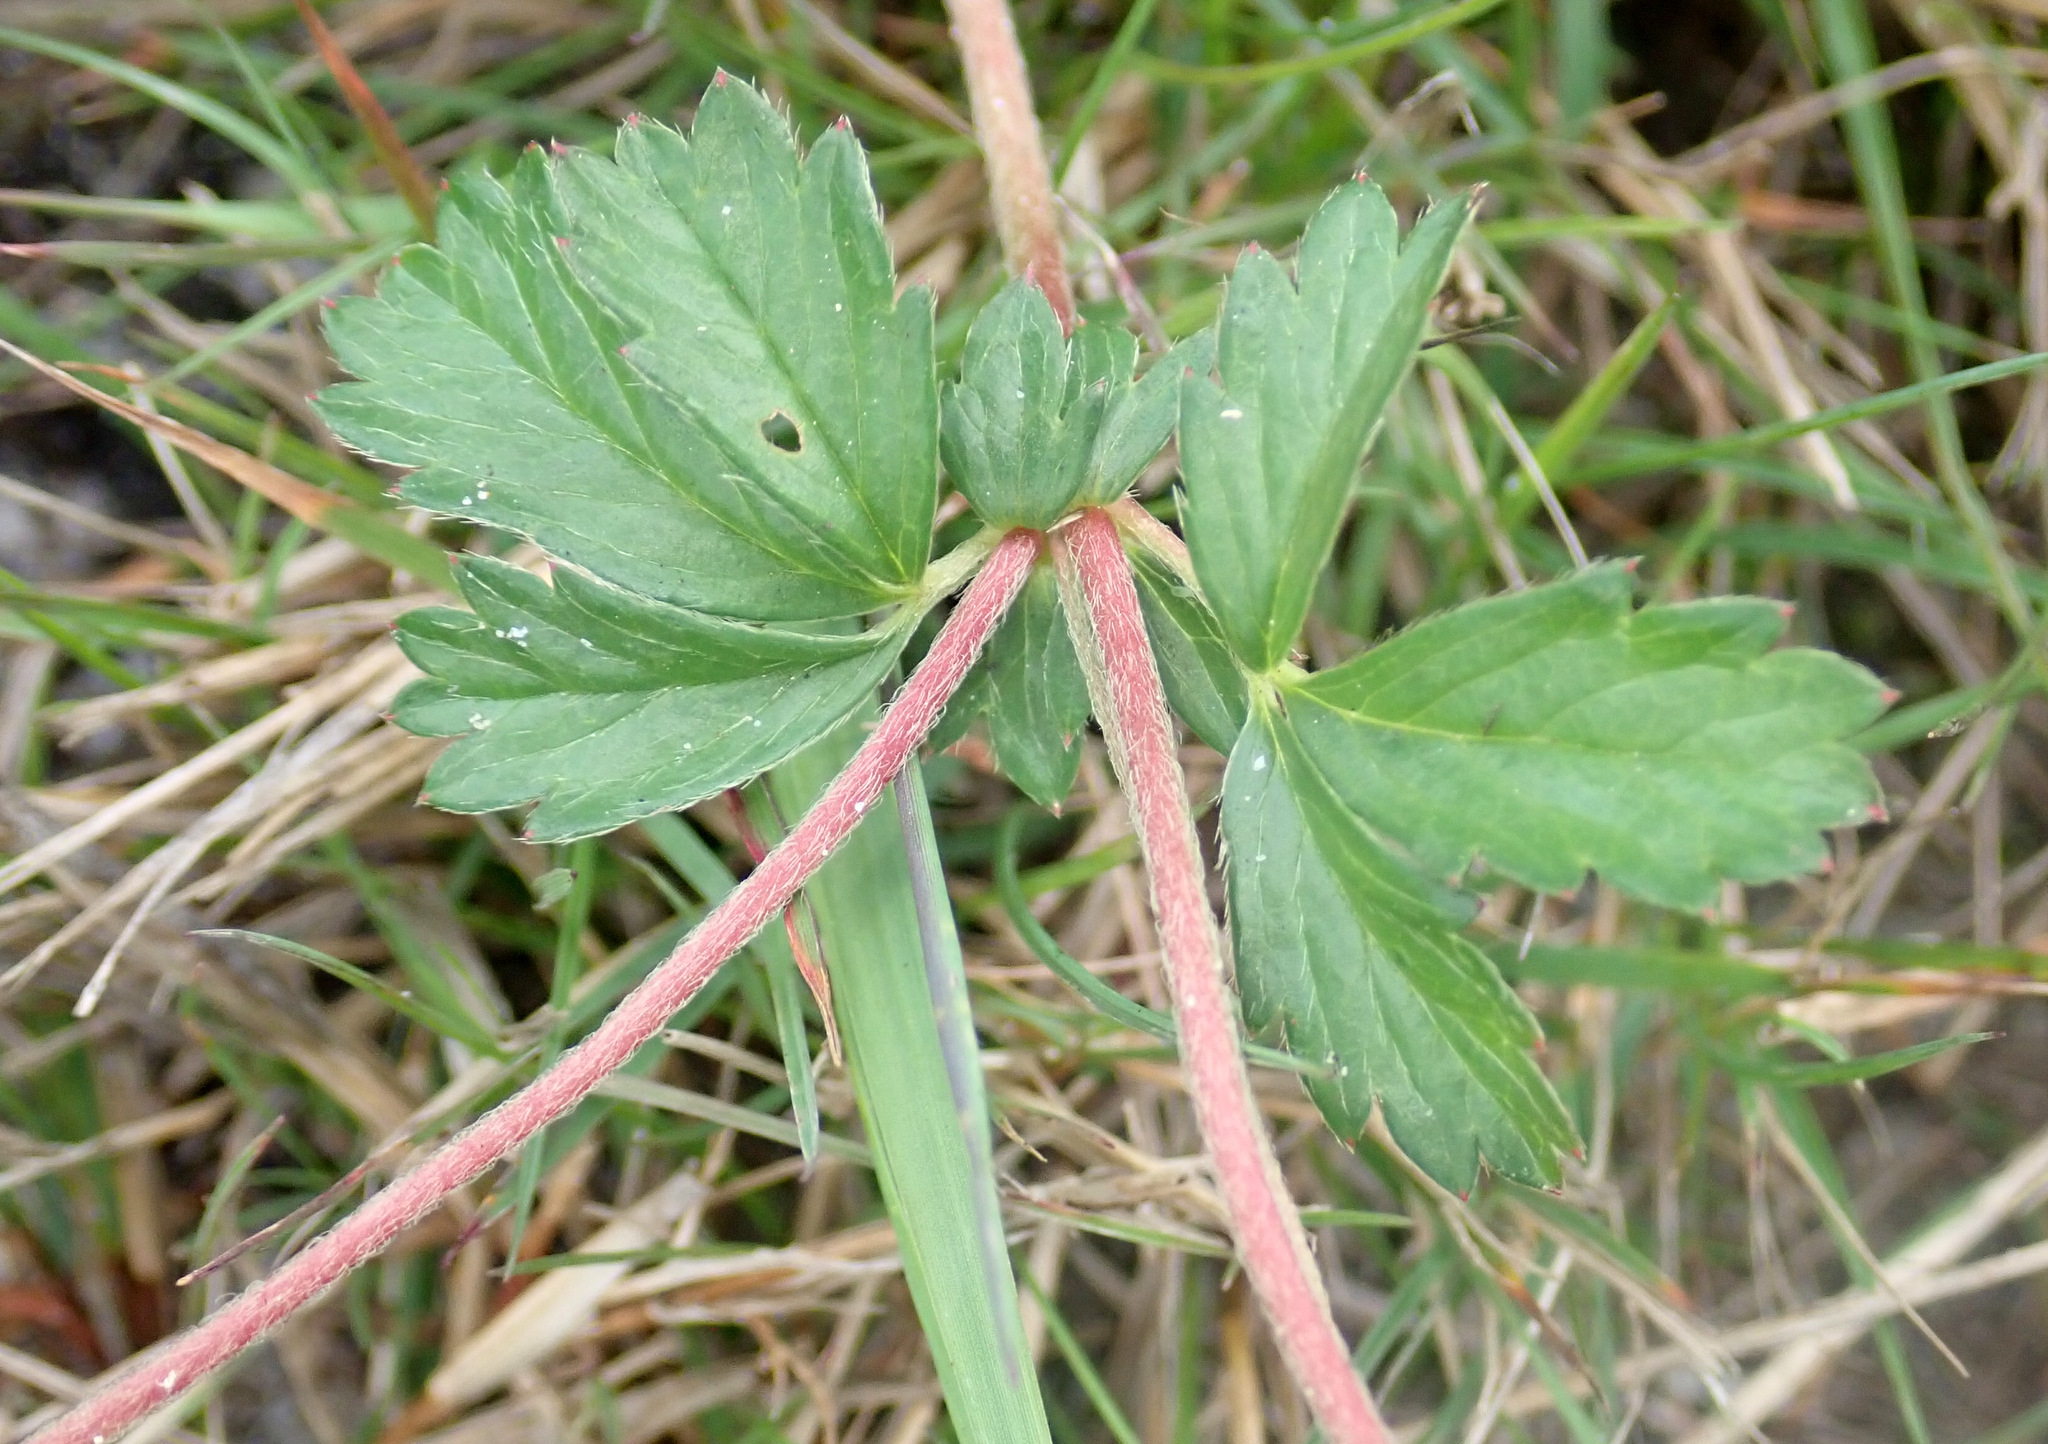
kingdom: Plantae
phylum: Tracheophyta
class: Magnoliopsida
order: Rosales
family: Rosaceae
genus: Potentilla
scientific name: Potentilla anglica
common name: Trailing tormentil
